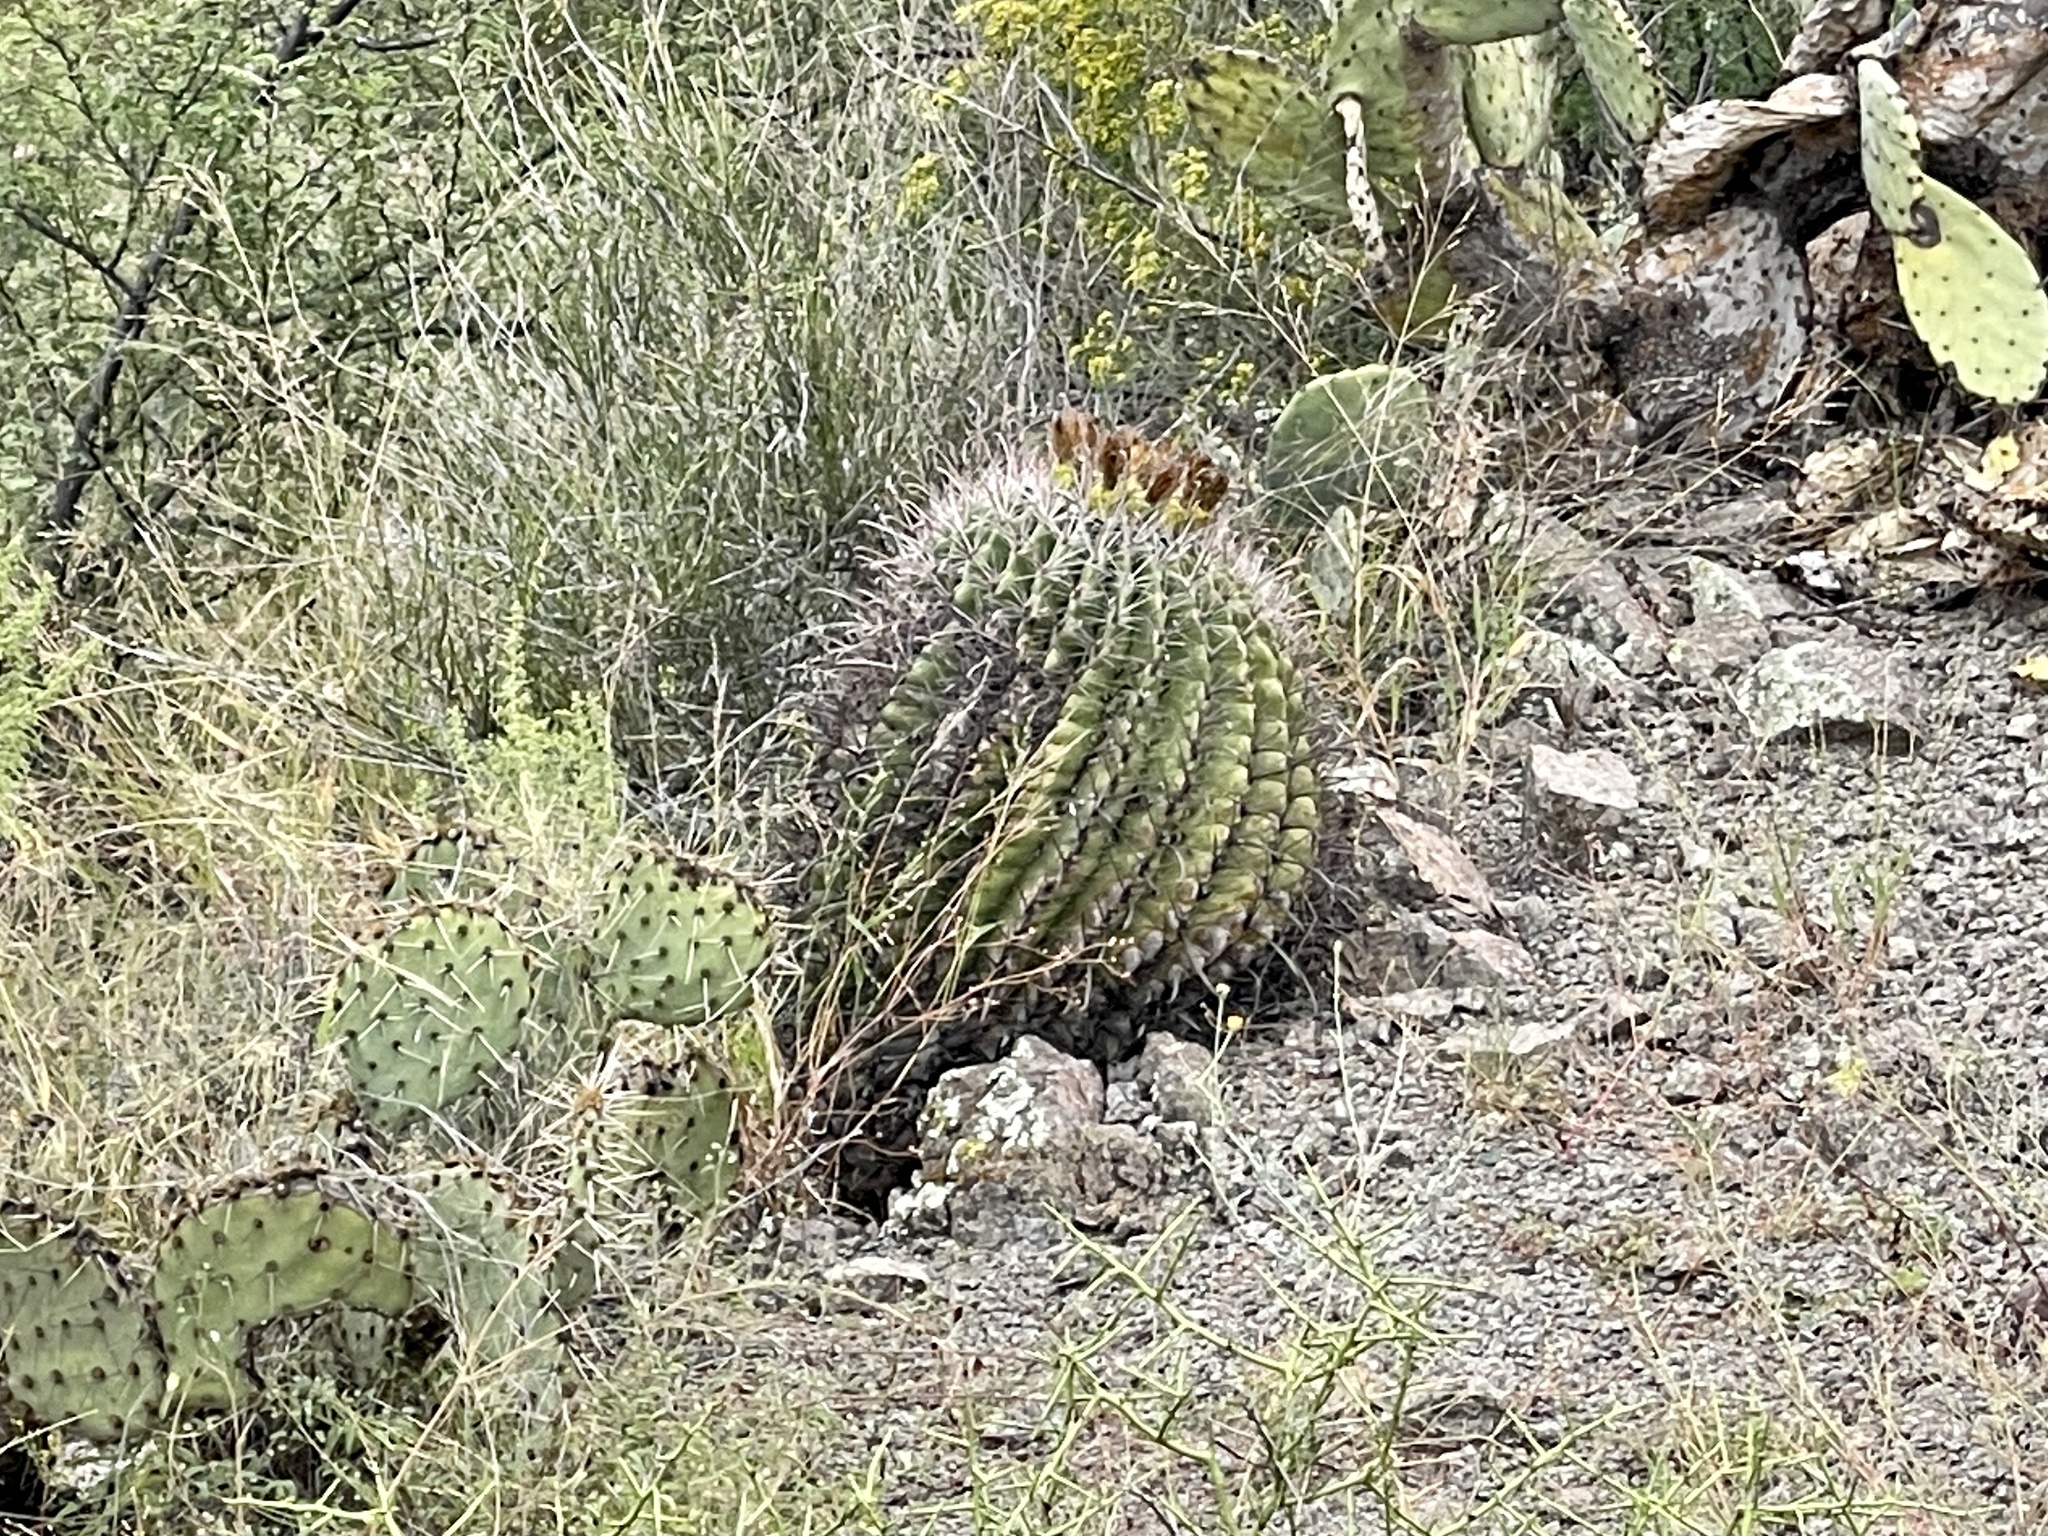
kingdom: Plantae
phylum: Tracheophyta
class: Magnoliopsida
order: Caryophyllales
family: Cactaceae
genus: Ferocactus
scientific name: Ferocactus wislizeni
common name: Candy barrel cactus
